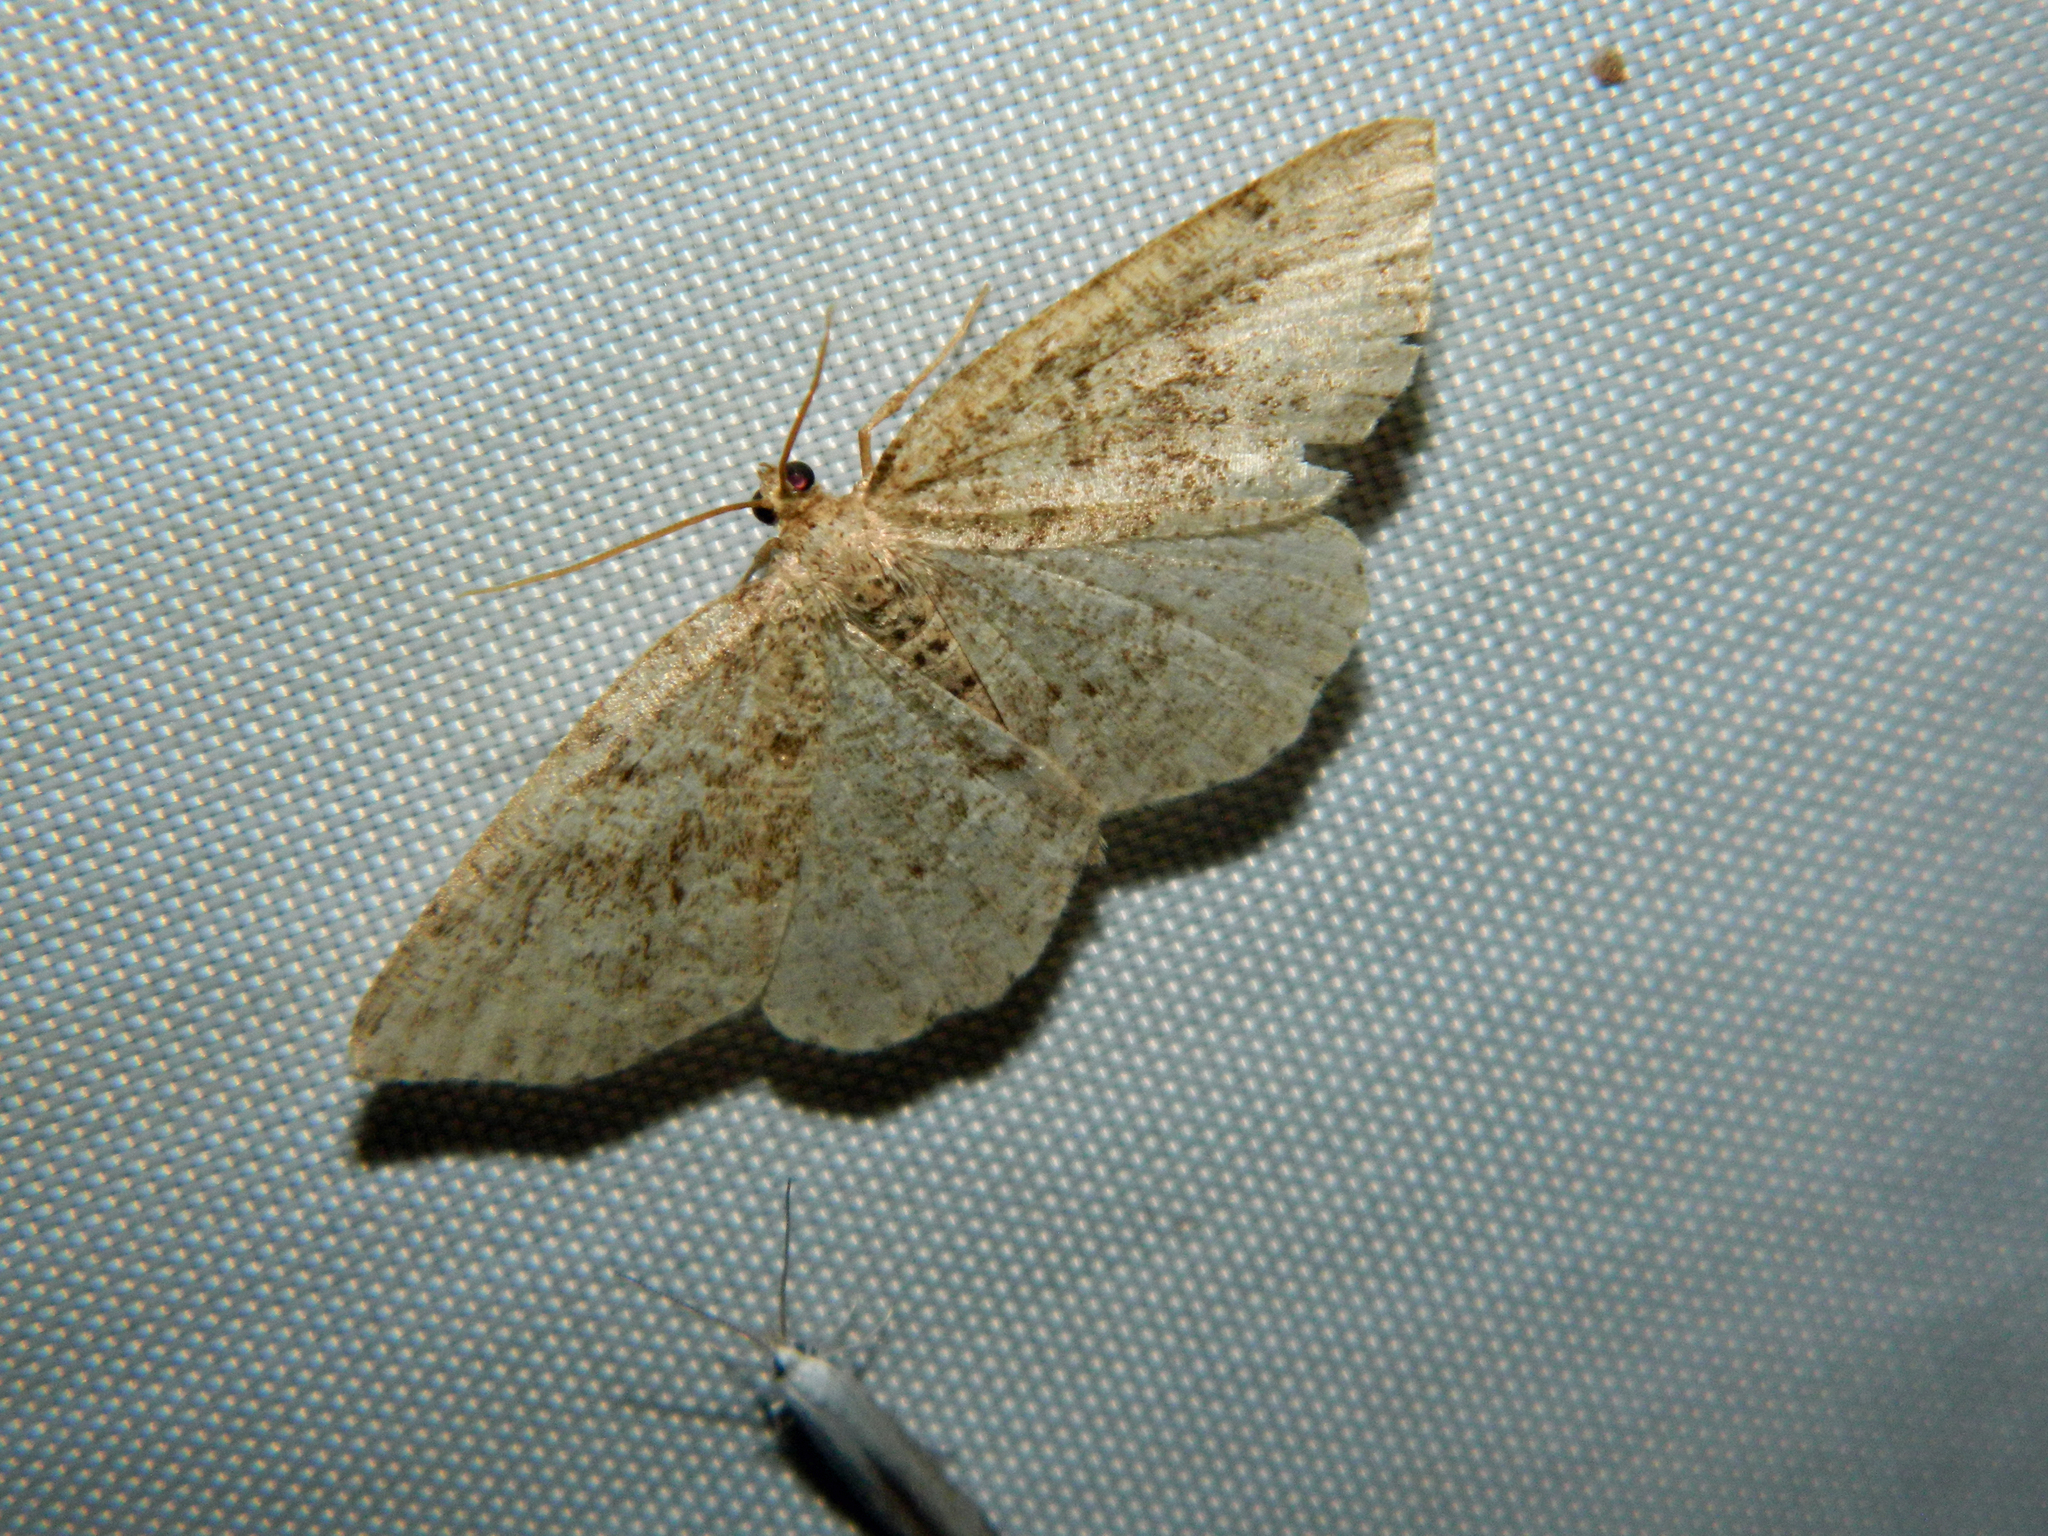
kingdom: Animalia
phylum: Arthropoda
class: Insecta
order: Lepidoptera
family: Geometridae
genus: Homochlodes
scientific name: Homochlodes fritillaria
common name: Pale homochlodes
